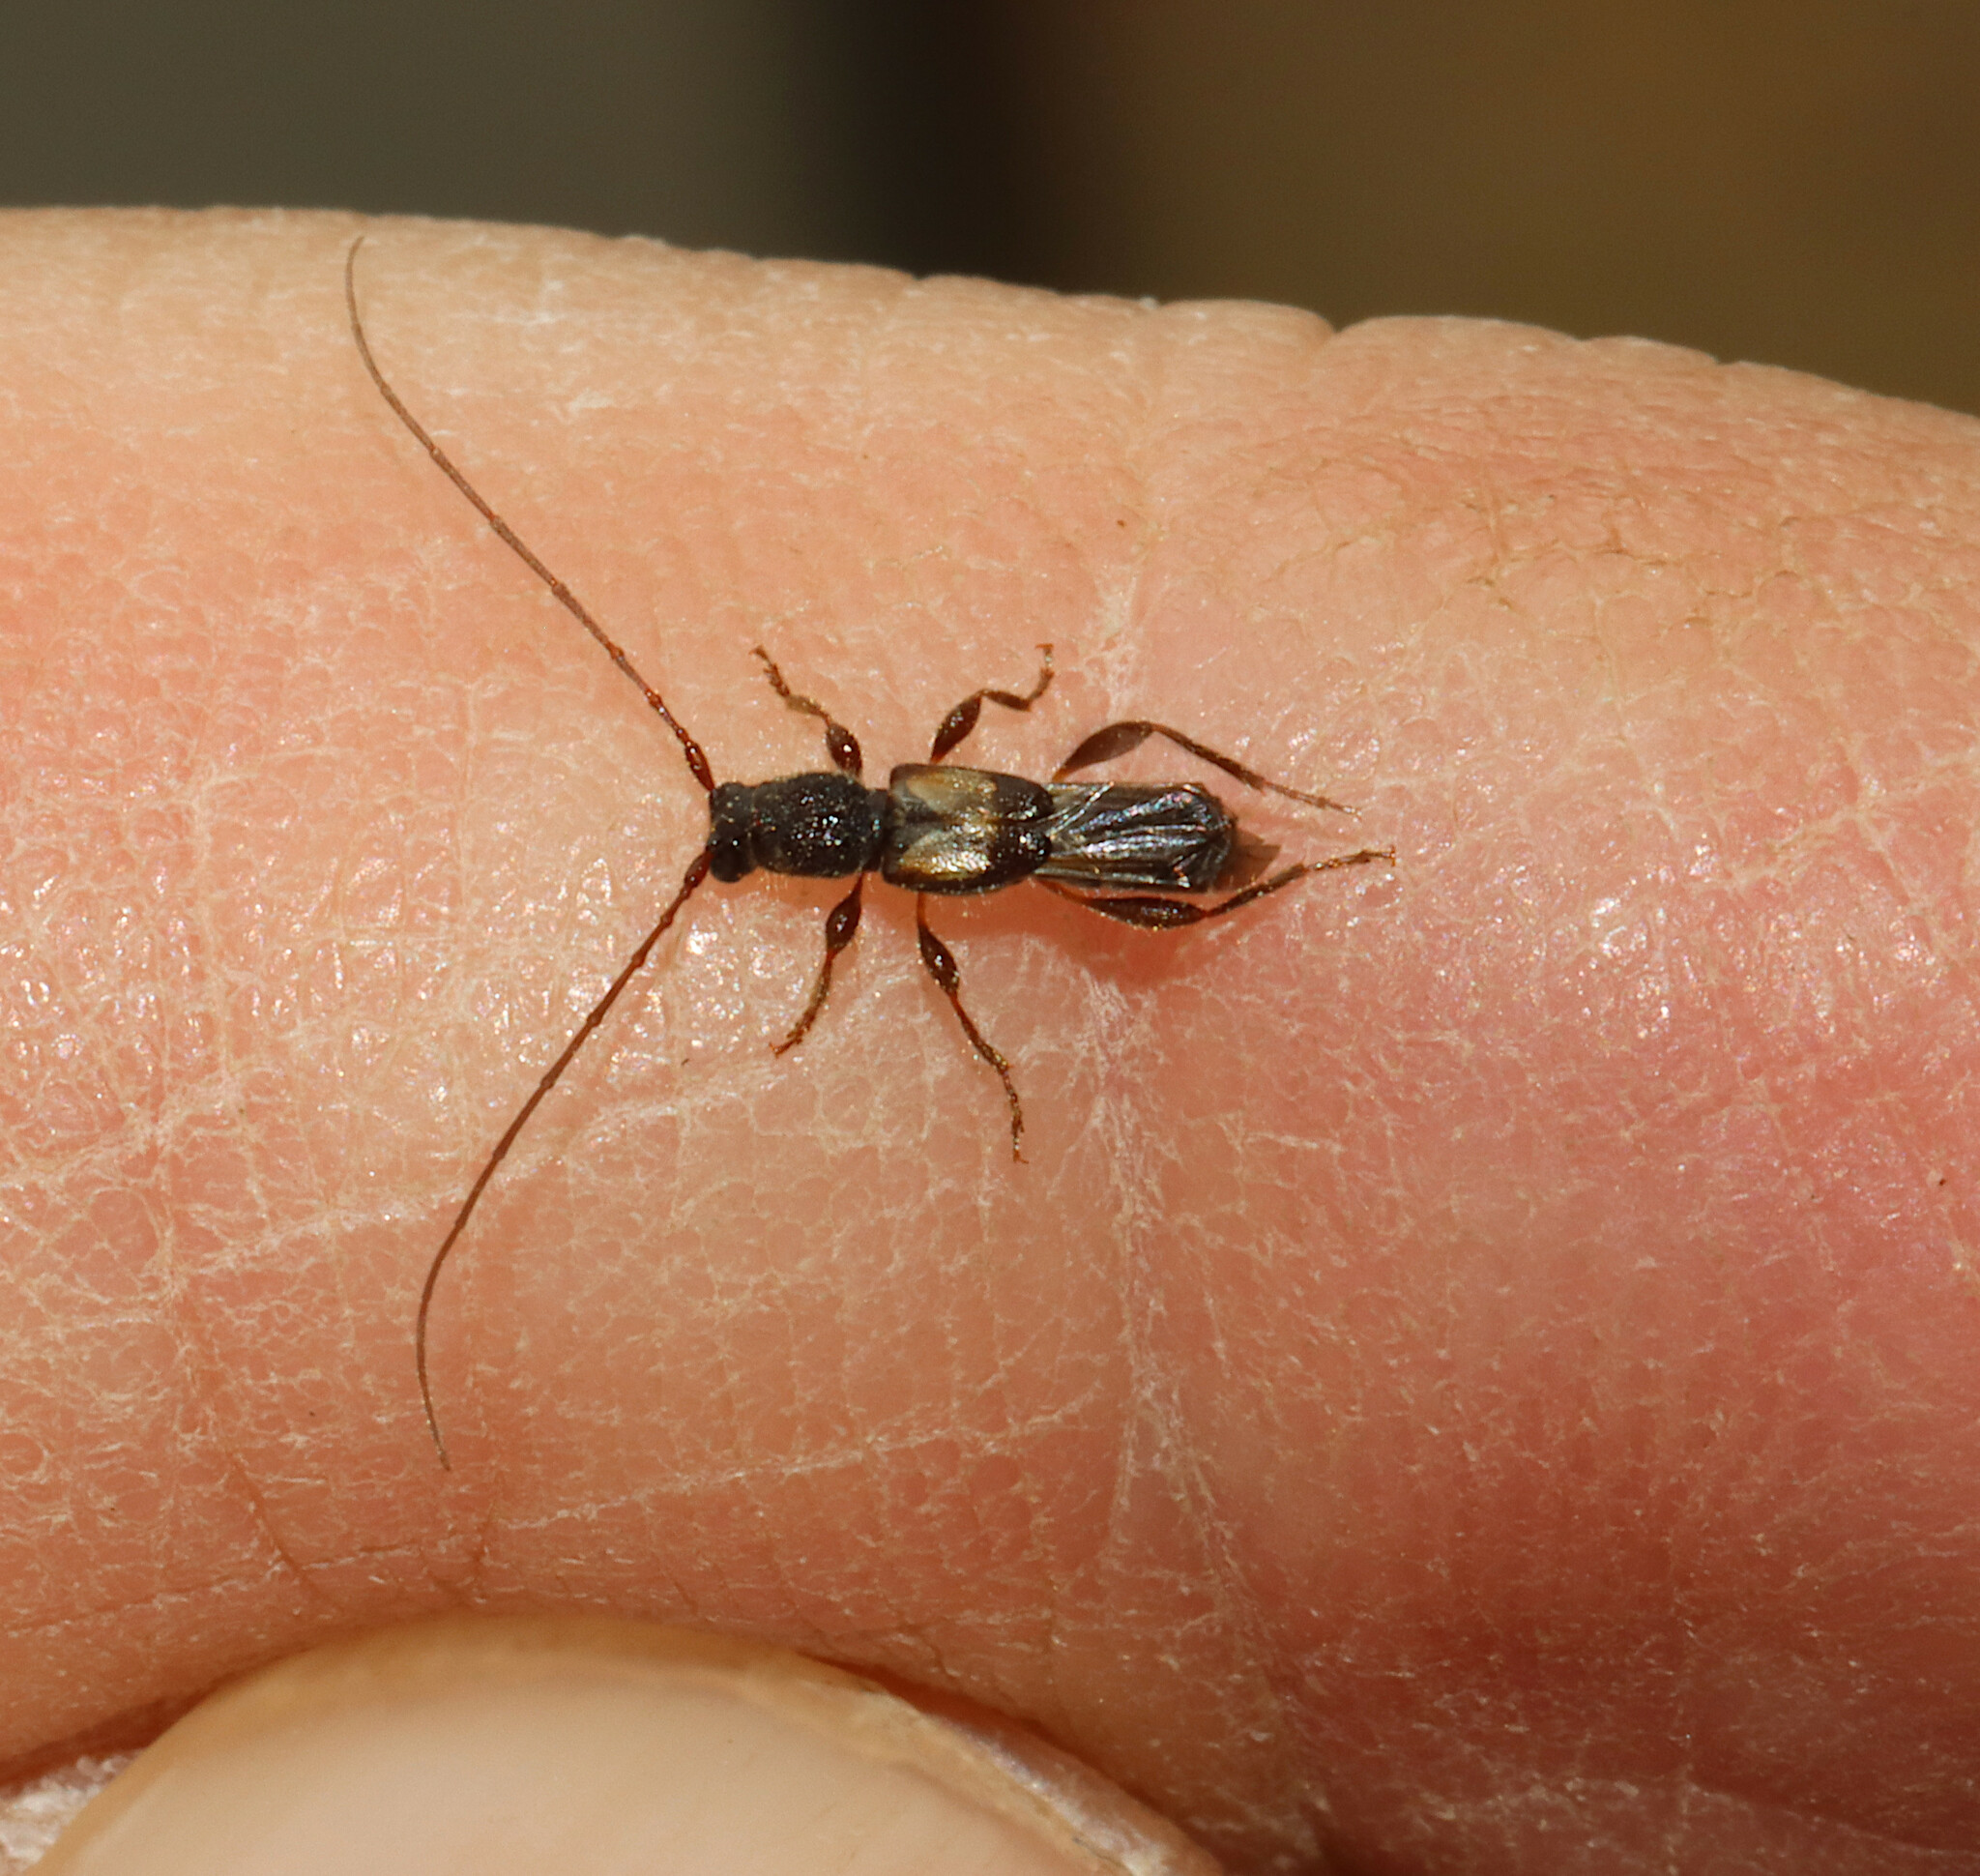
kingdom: Animalia
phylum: Arthropoda
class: Insecta
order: Coleoptera
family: Cerambycidae
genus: Molorchus
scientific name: Molorchus bimaculatus
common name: Bimaculate longhorn beetle
